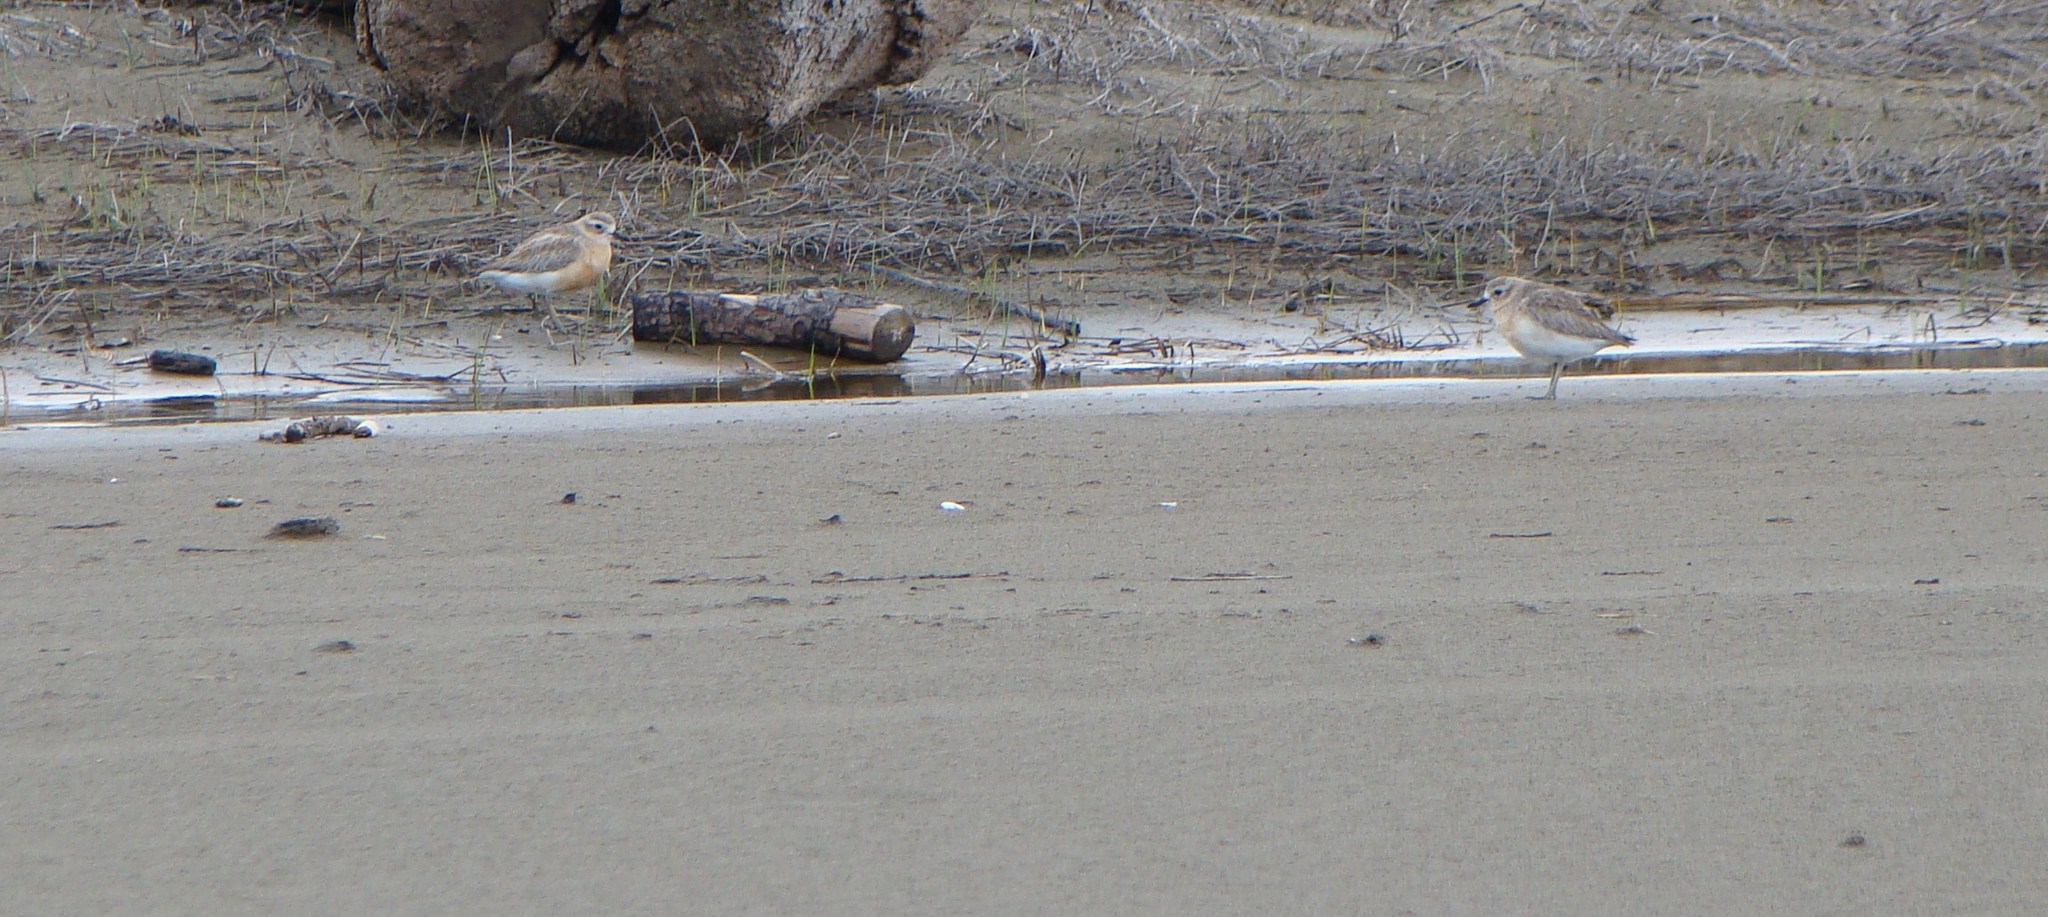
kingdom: Animalia
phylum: Chordata
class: Aves
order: Charadriiformes
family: Charadriidae
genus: Anarhynchus
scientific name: Anarhynchus
